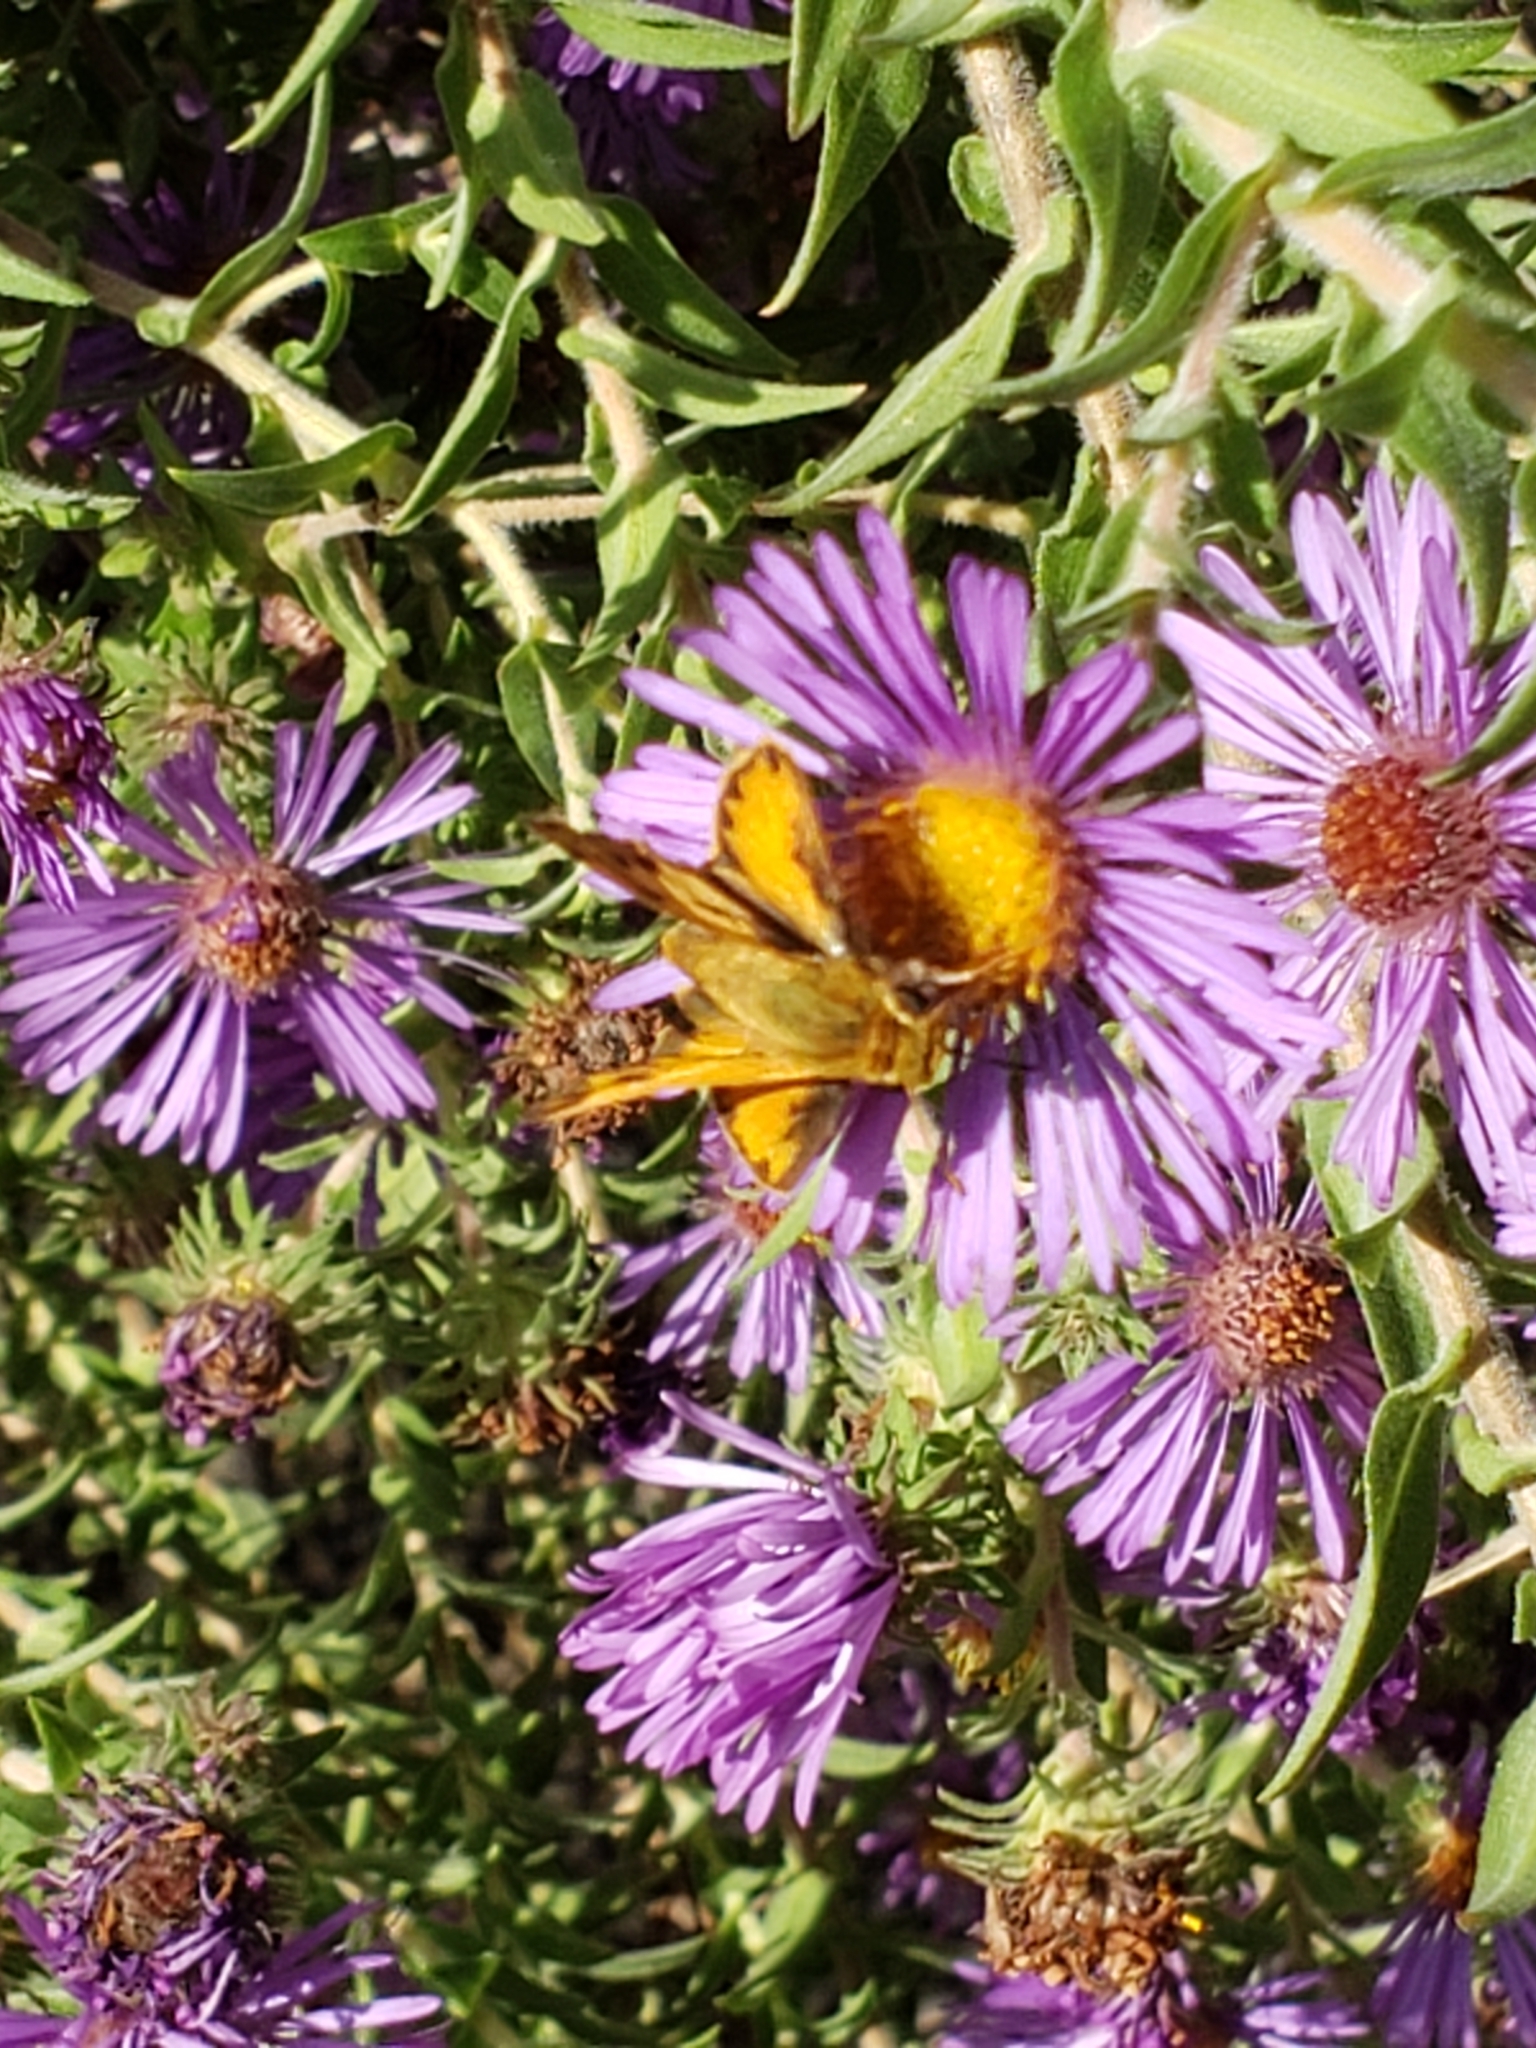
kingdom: Animalia
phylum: Arthropoda
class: Insecta
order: Lepidoptera
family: Hesperiidae
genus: Hylephila
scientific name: Hylephila phyleus
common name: Fiery skipper
